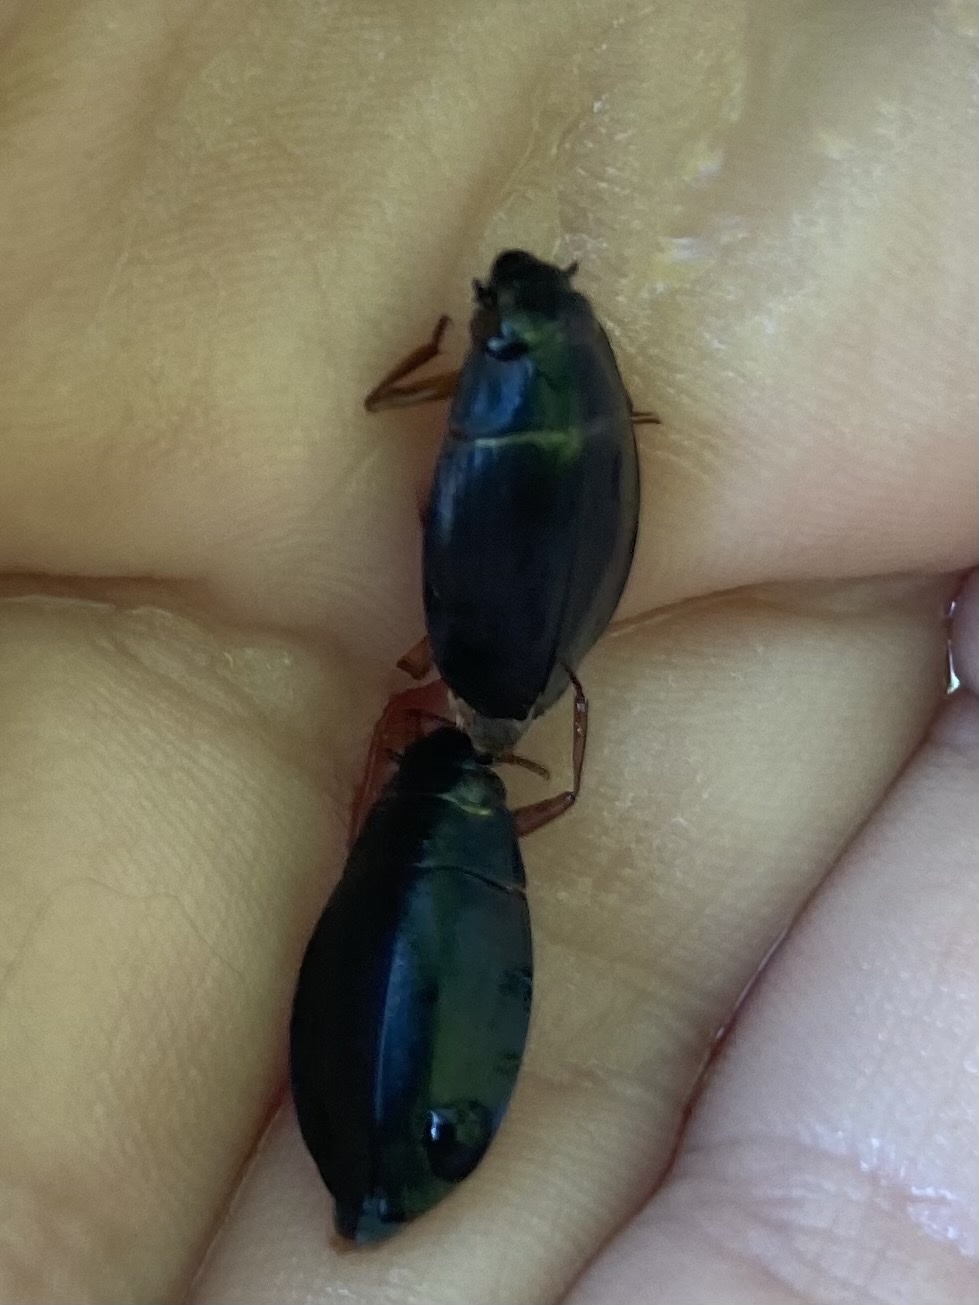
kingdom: Animalia
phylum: Arthropoda
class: Insecta
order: Coleoptera
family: Gyrinidae
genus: Dineutus
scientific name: Dineutus discolor
